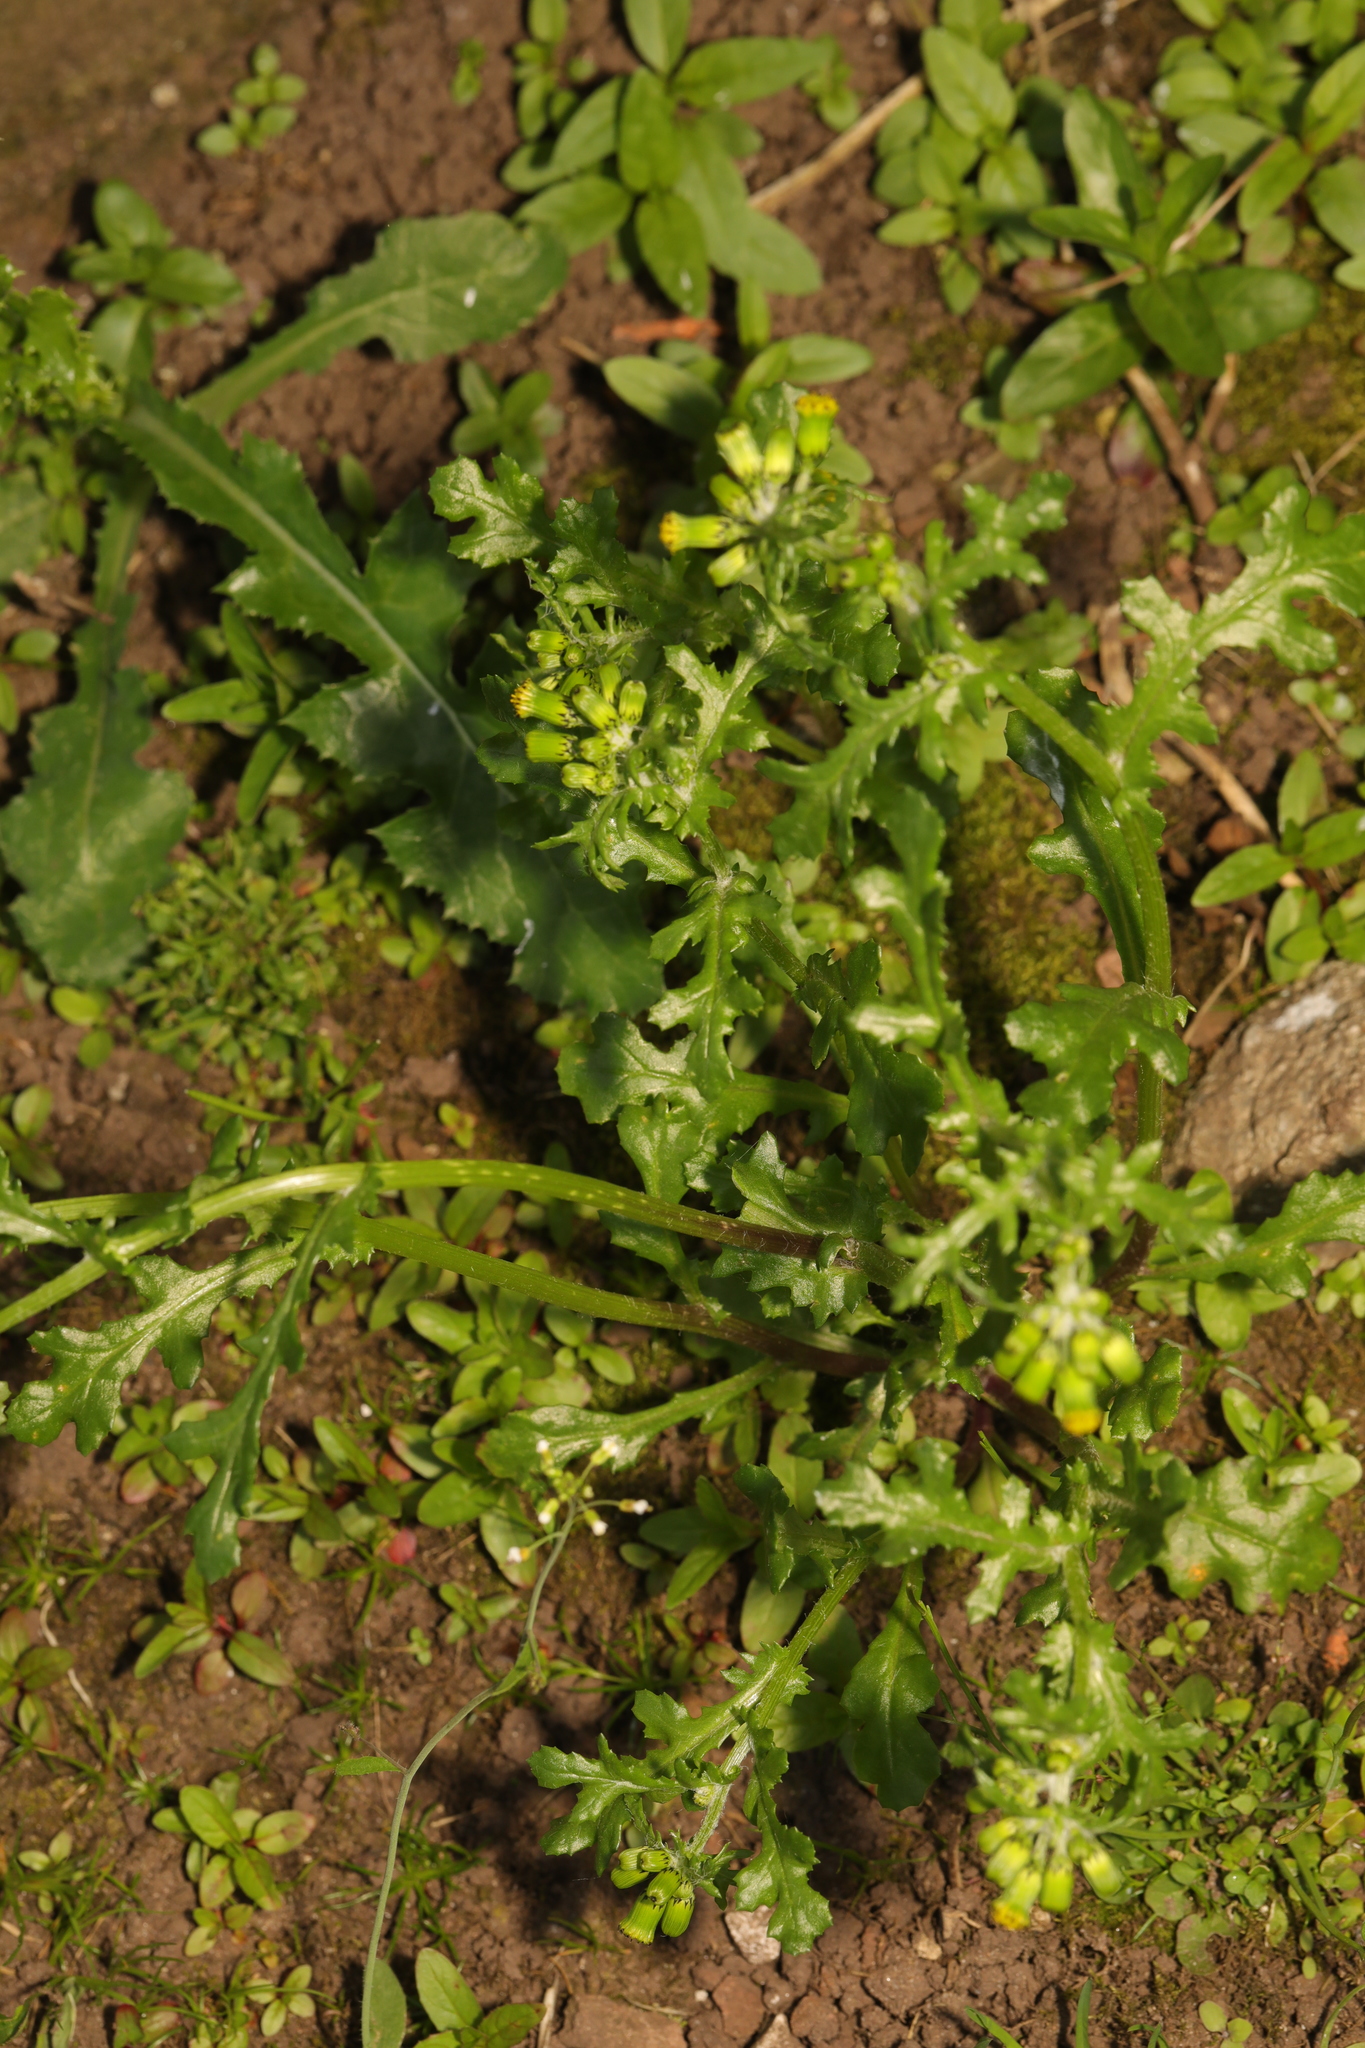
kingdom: Plantae
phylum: Tracheophyta
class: Magnoliopsida
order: Asterales
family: Asteraceae
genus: Senecio
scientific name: Senecio vulgaris
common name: Old-man-in-the-spring
